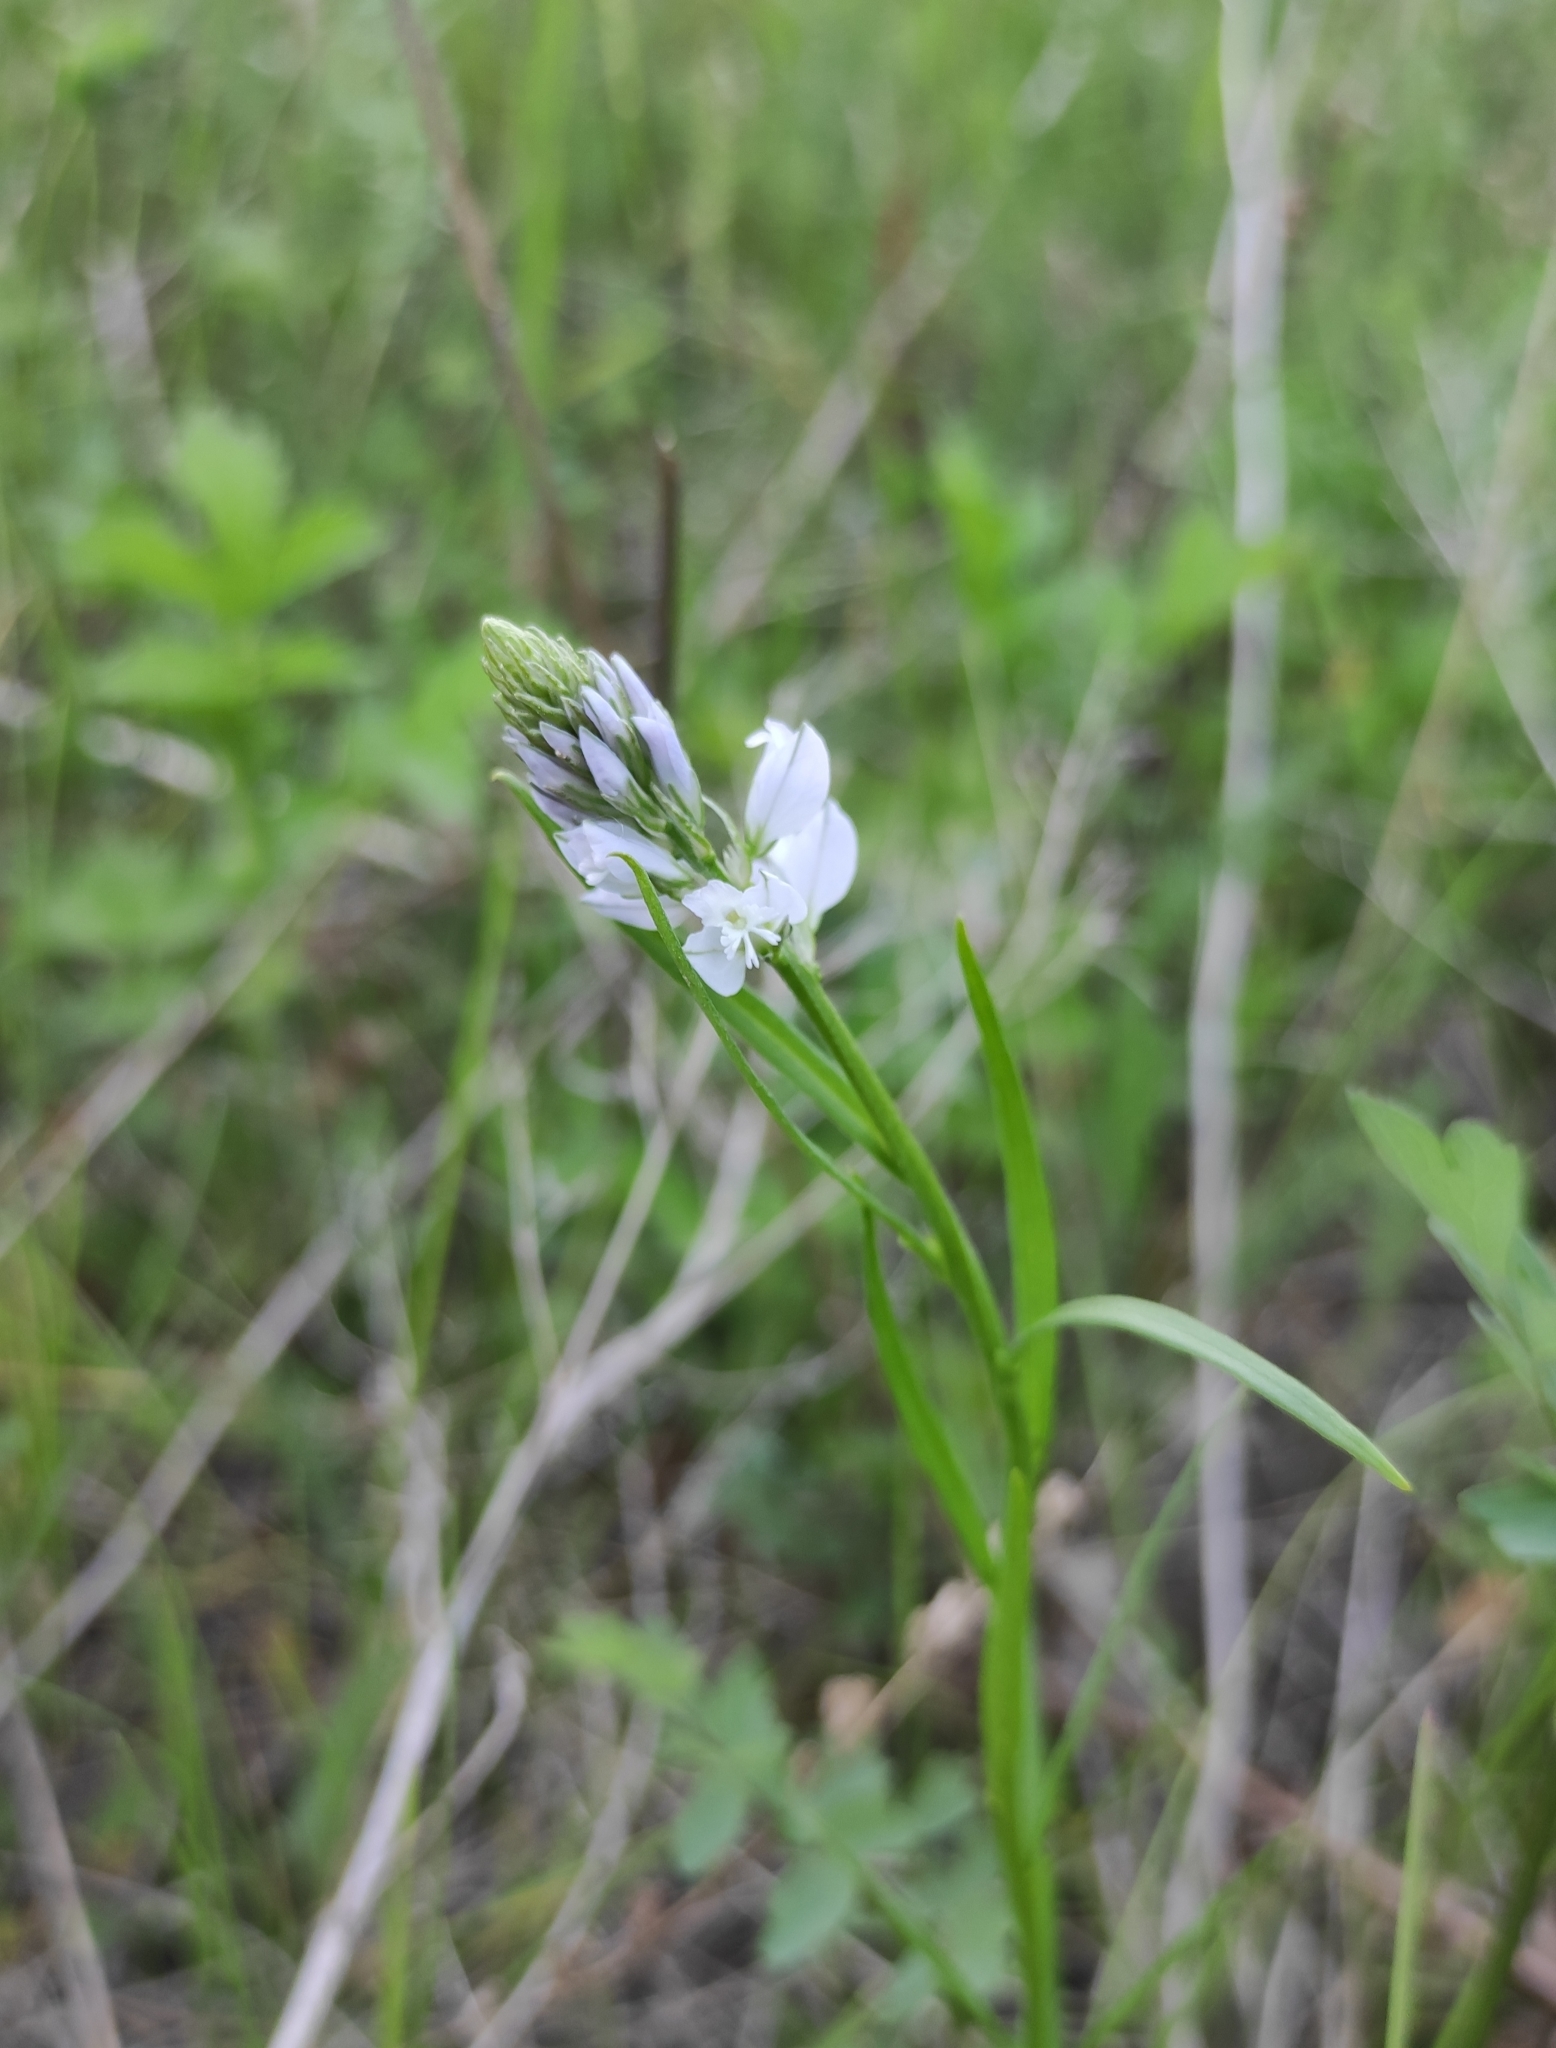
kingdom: Plantae
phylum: Tracheophyta
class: Magnoliopsida
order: Fabales
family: Polygalaceae
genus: Polygala
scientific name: Polygala comosa
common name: Tufted milkwort
